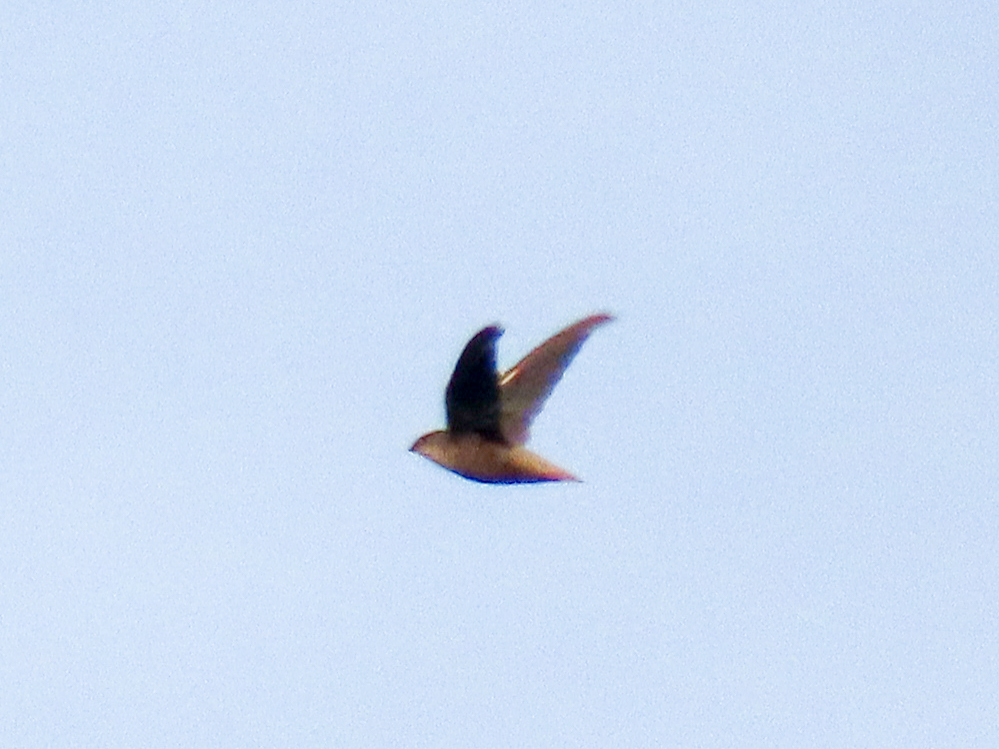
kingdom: Animalia
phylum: Chordata
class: Aves
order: Apodiformes
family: Apodidae
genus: Chaetura
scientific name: Chaetura pelagica
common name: Chimney swift
